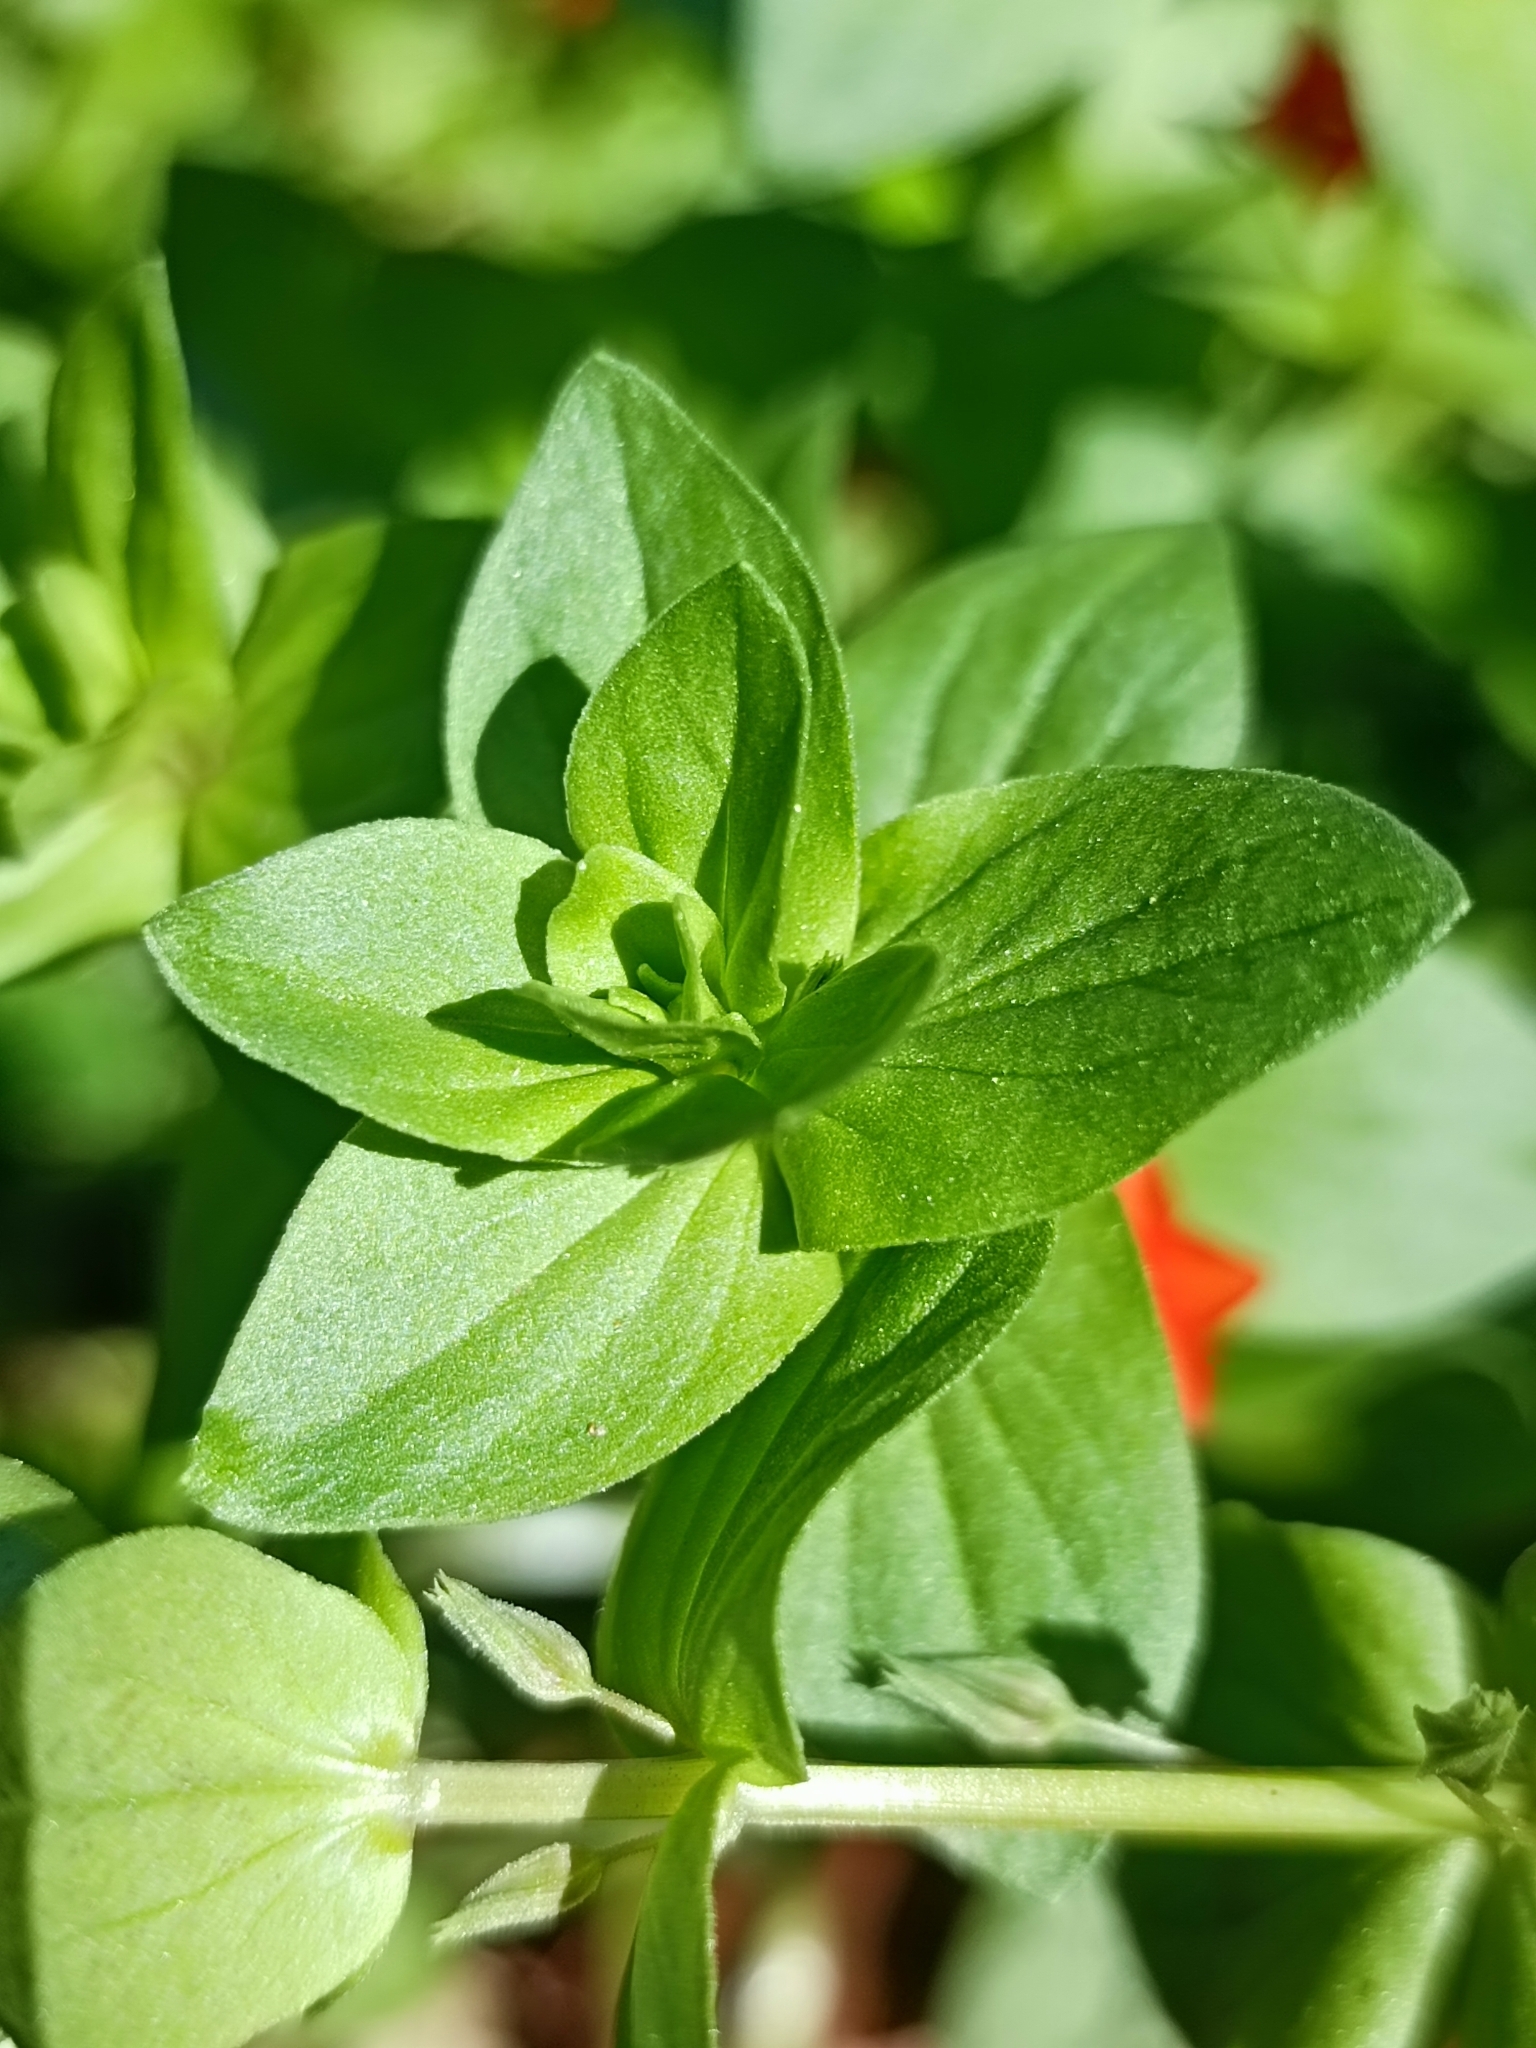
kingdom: Plantae
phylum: Tracheophyta
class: Magnoliopsida
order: Ericales
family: Primulaceae
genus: Lysimachia
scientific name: Lysimachia arvensis
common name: Scarlet pimpernel
